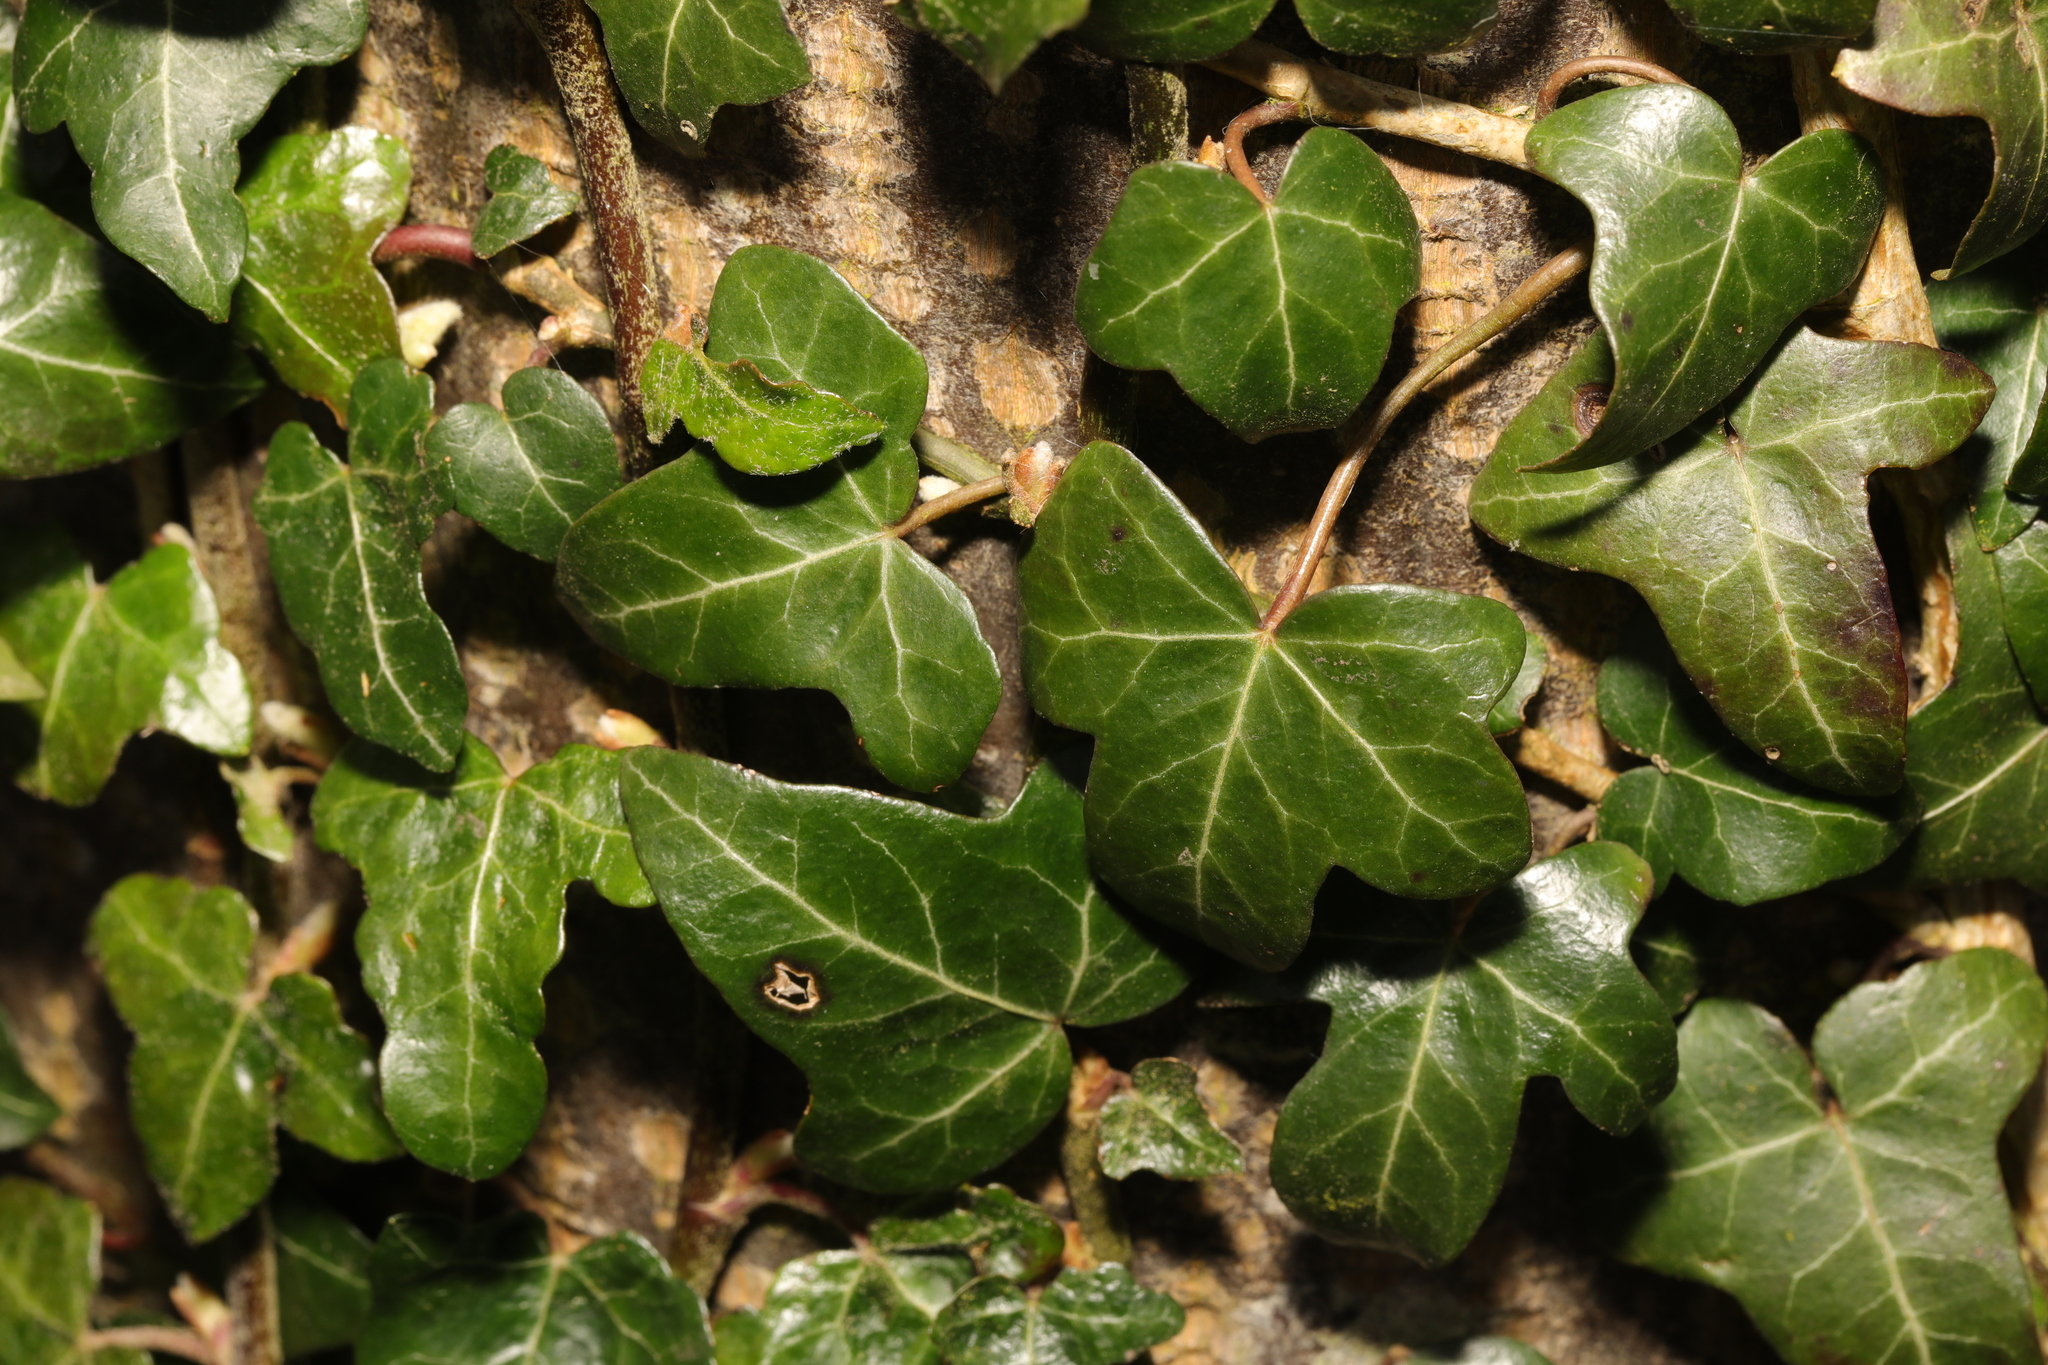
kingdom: Plantae
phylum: Tracheophyta
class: Magnoliopsida
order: Apiales
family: Araliaceae
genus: Hedera
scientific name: Hedera helix
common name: Ivy
